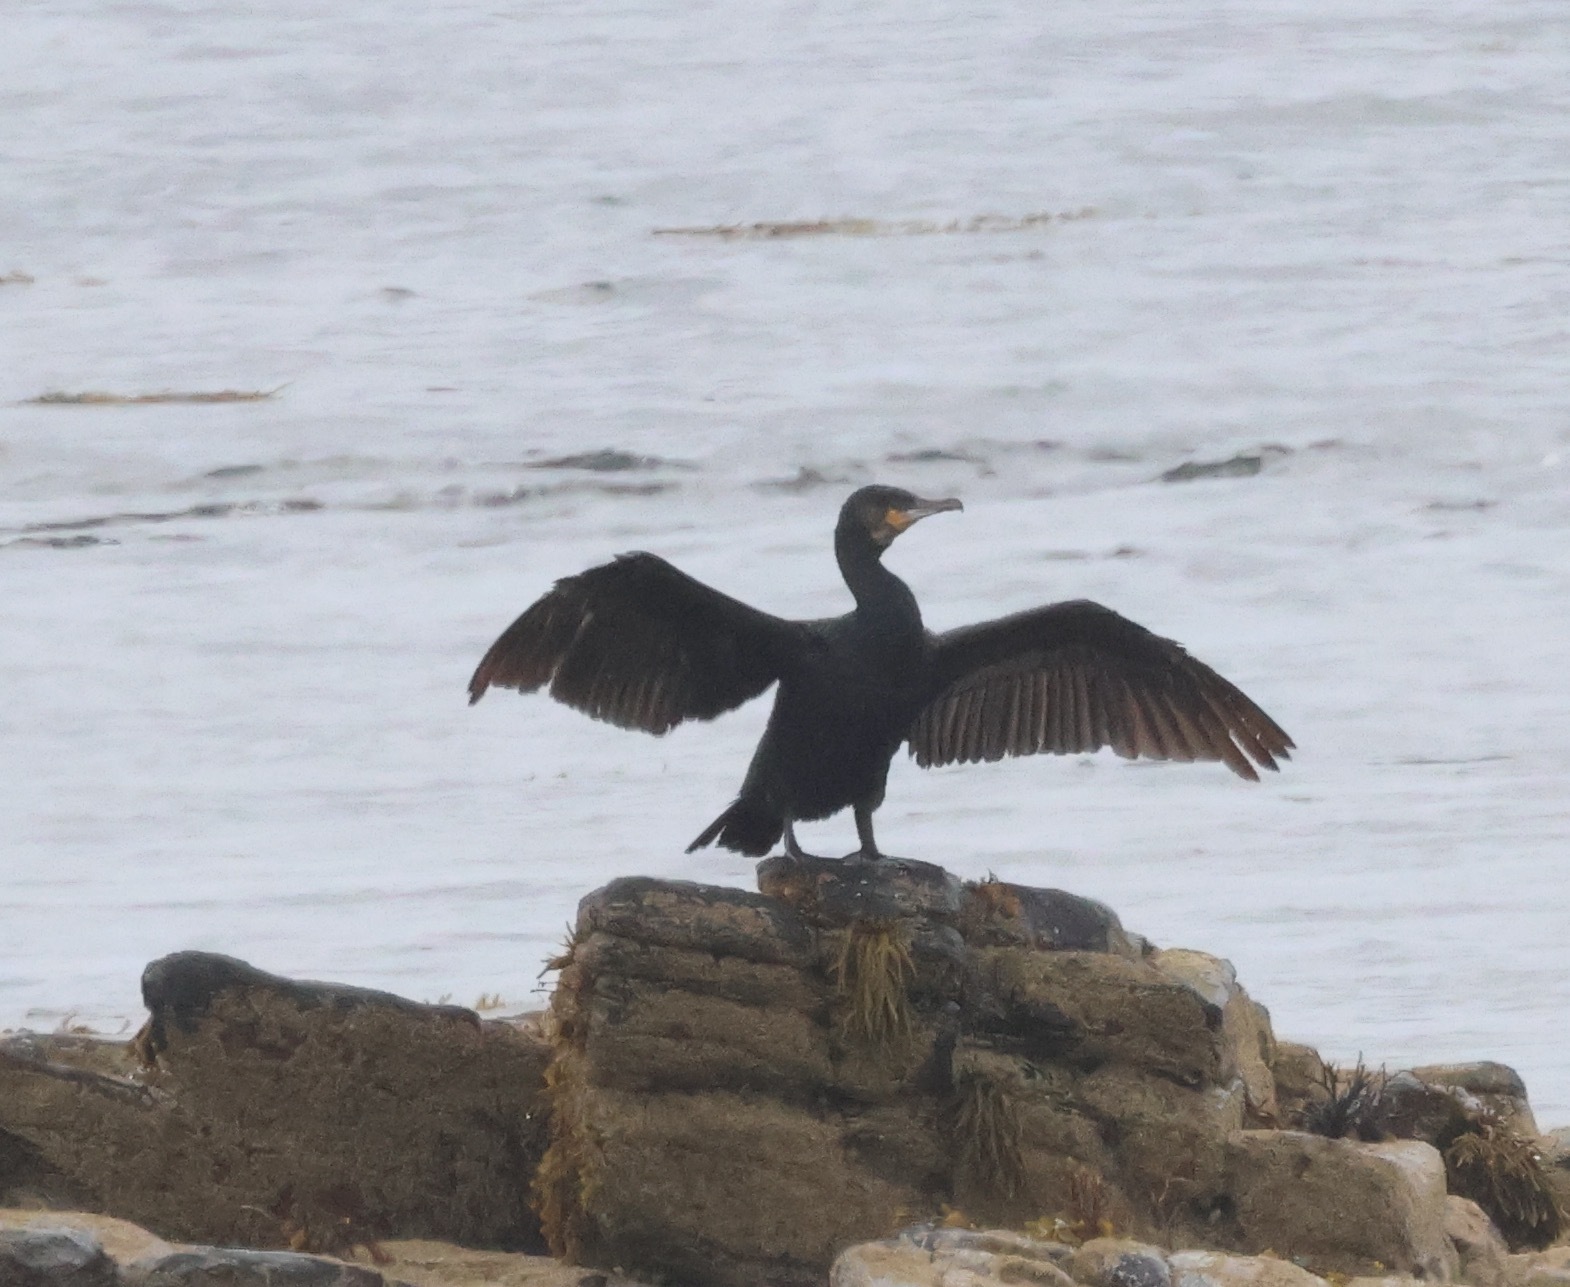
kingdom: Animalia
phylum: Chordata
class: Aves
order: Suliformes
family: Phalacrocoracidae
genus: Phalacrocorax
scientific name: Phalacrocorax carbo
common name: Great cormorant
